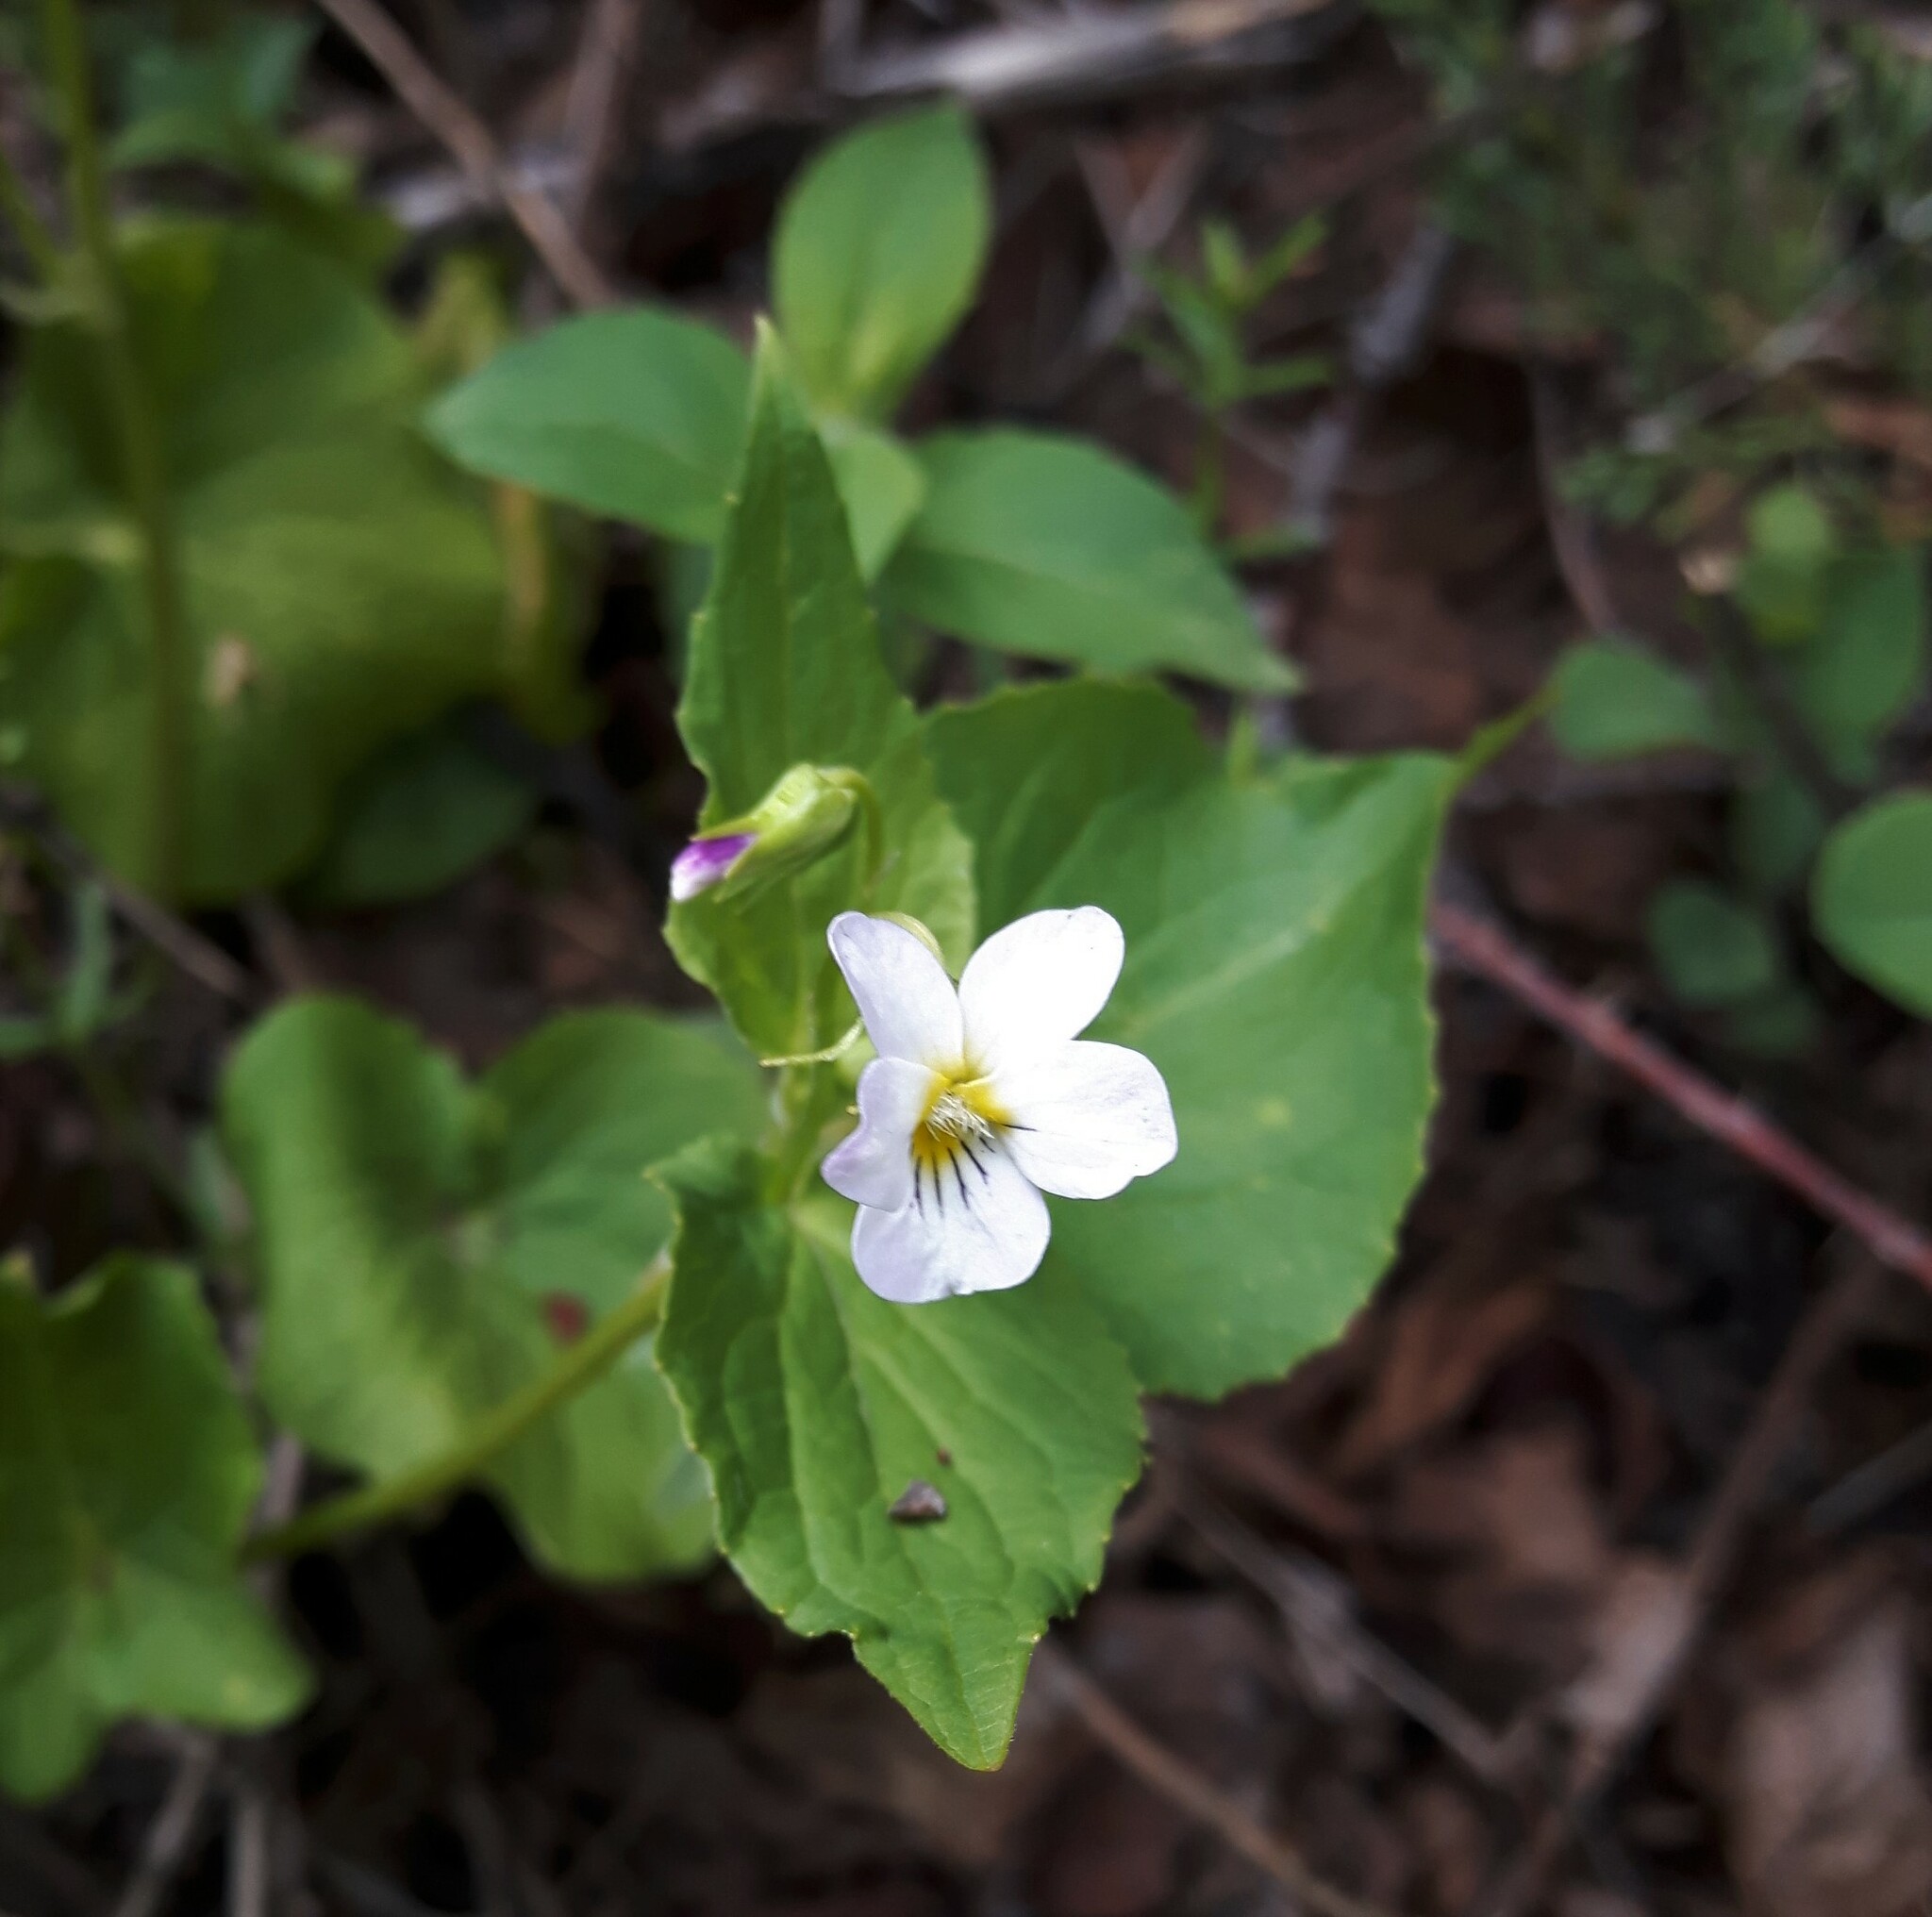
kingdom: Plantae
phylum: Tracheophyta
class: Magnoliopsida
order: Malpighiales
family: Violaceae
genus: Viola
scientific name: Viola canadensis
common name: Canada violet
